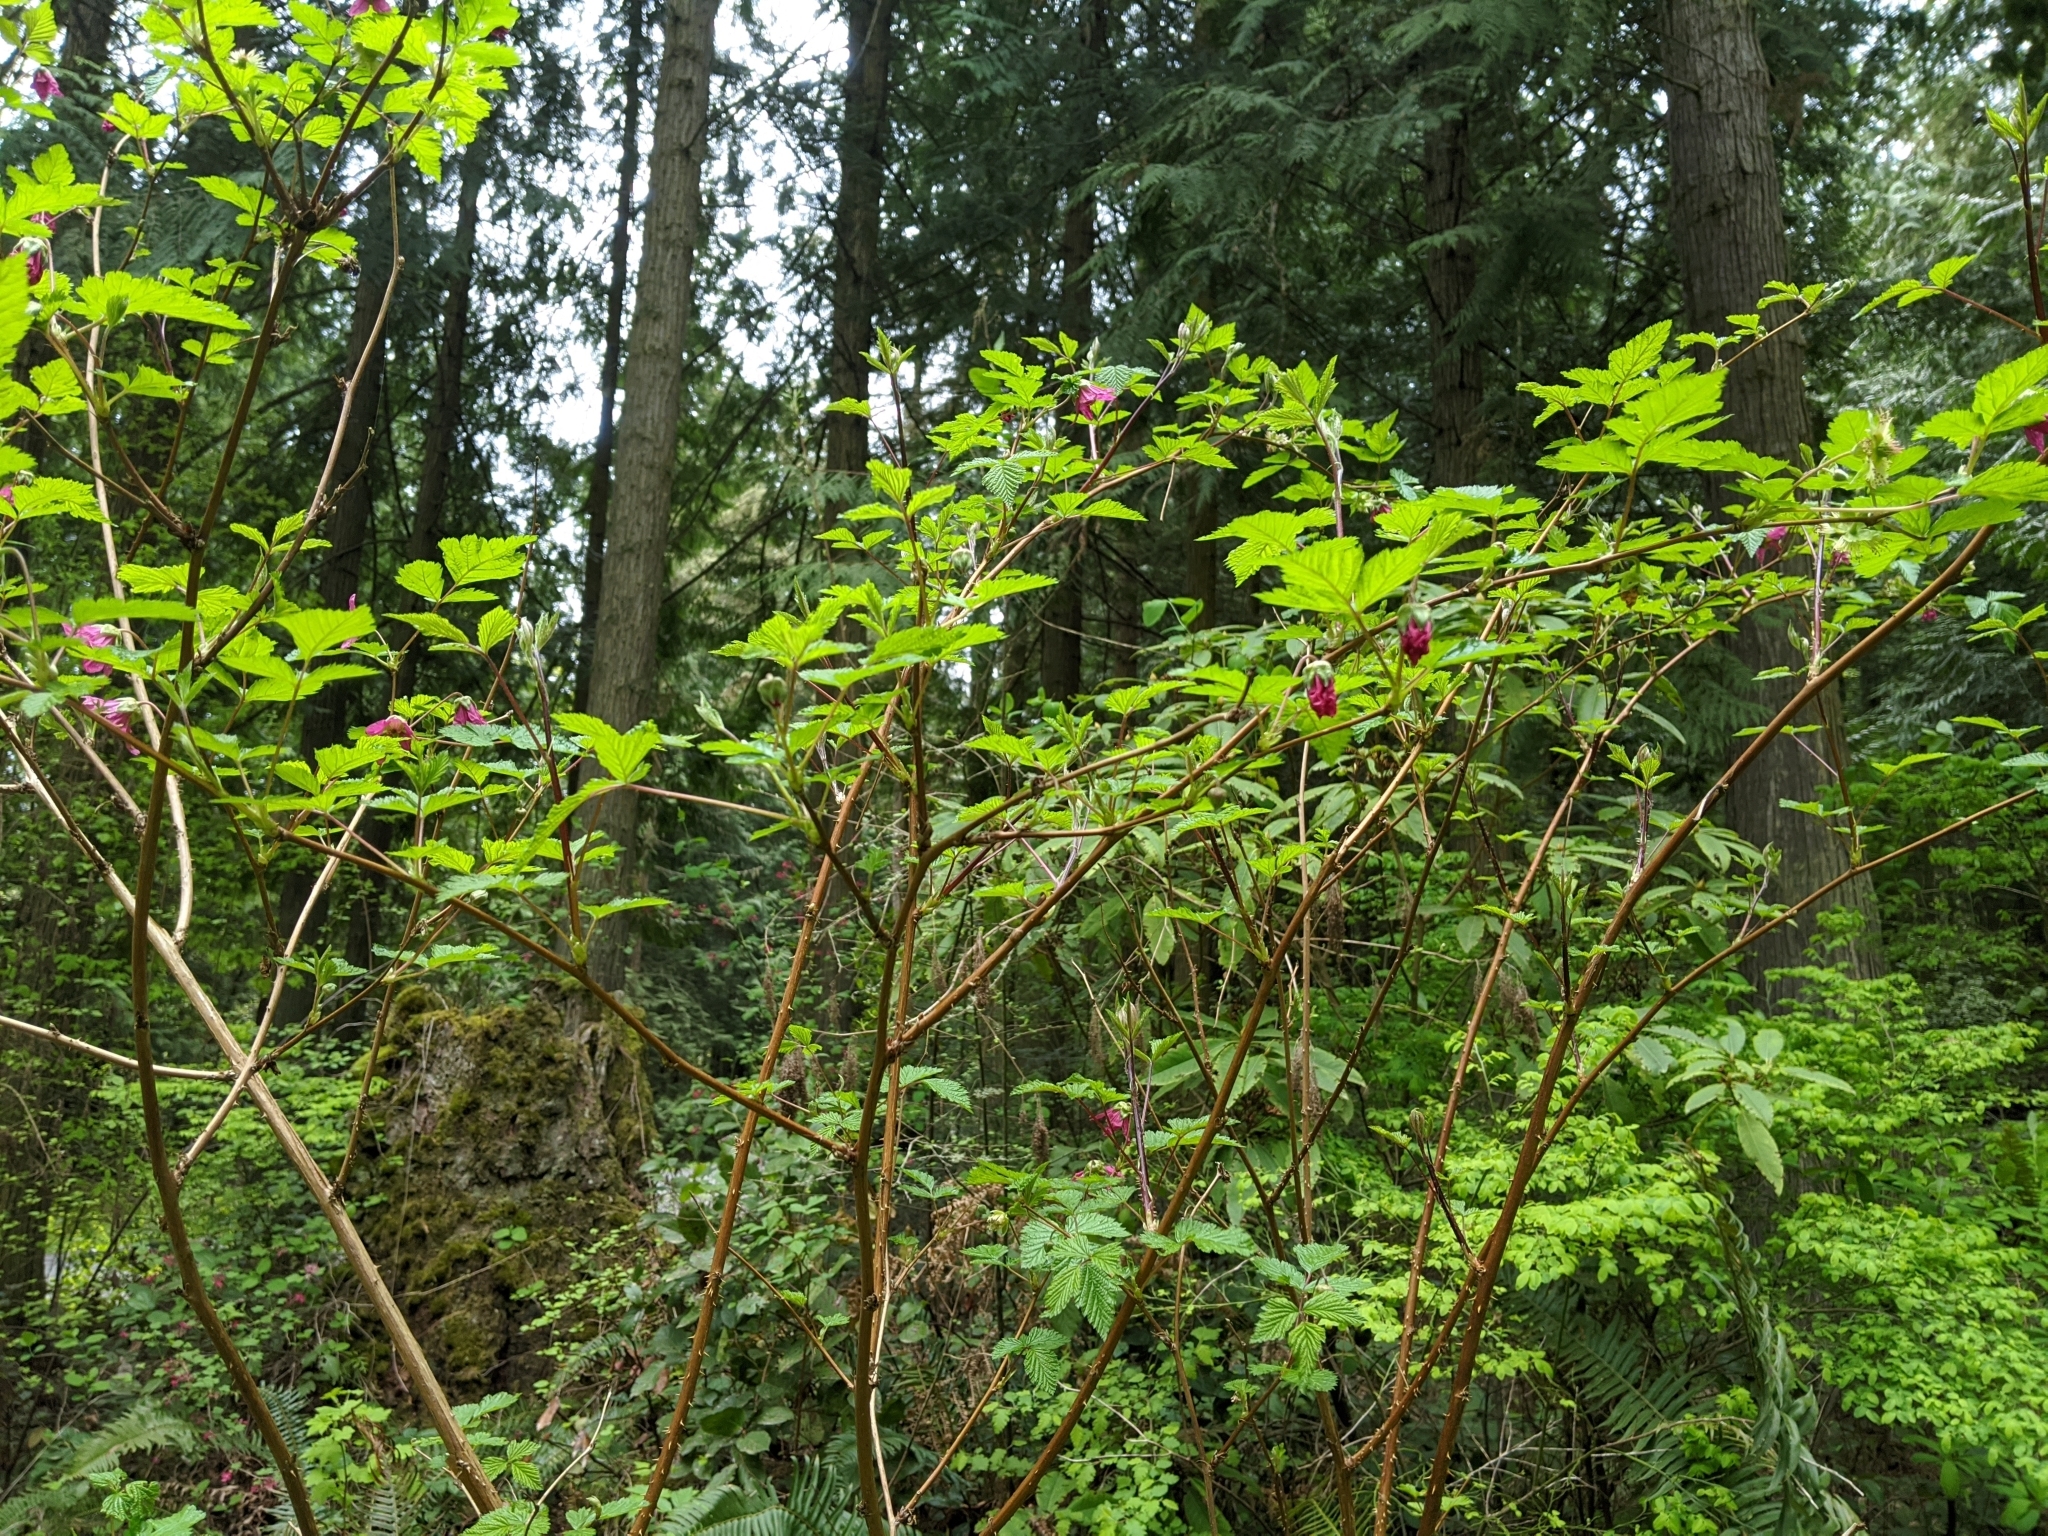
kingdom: Plantae
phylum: Tracheophyta
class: Magnoliopsida
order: Rosales
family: Rosaceae
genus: Rubus
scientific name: Rubus spectabilis
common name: Salmonberry
